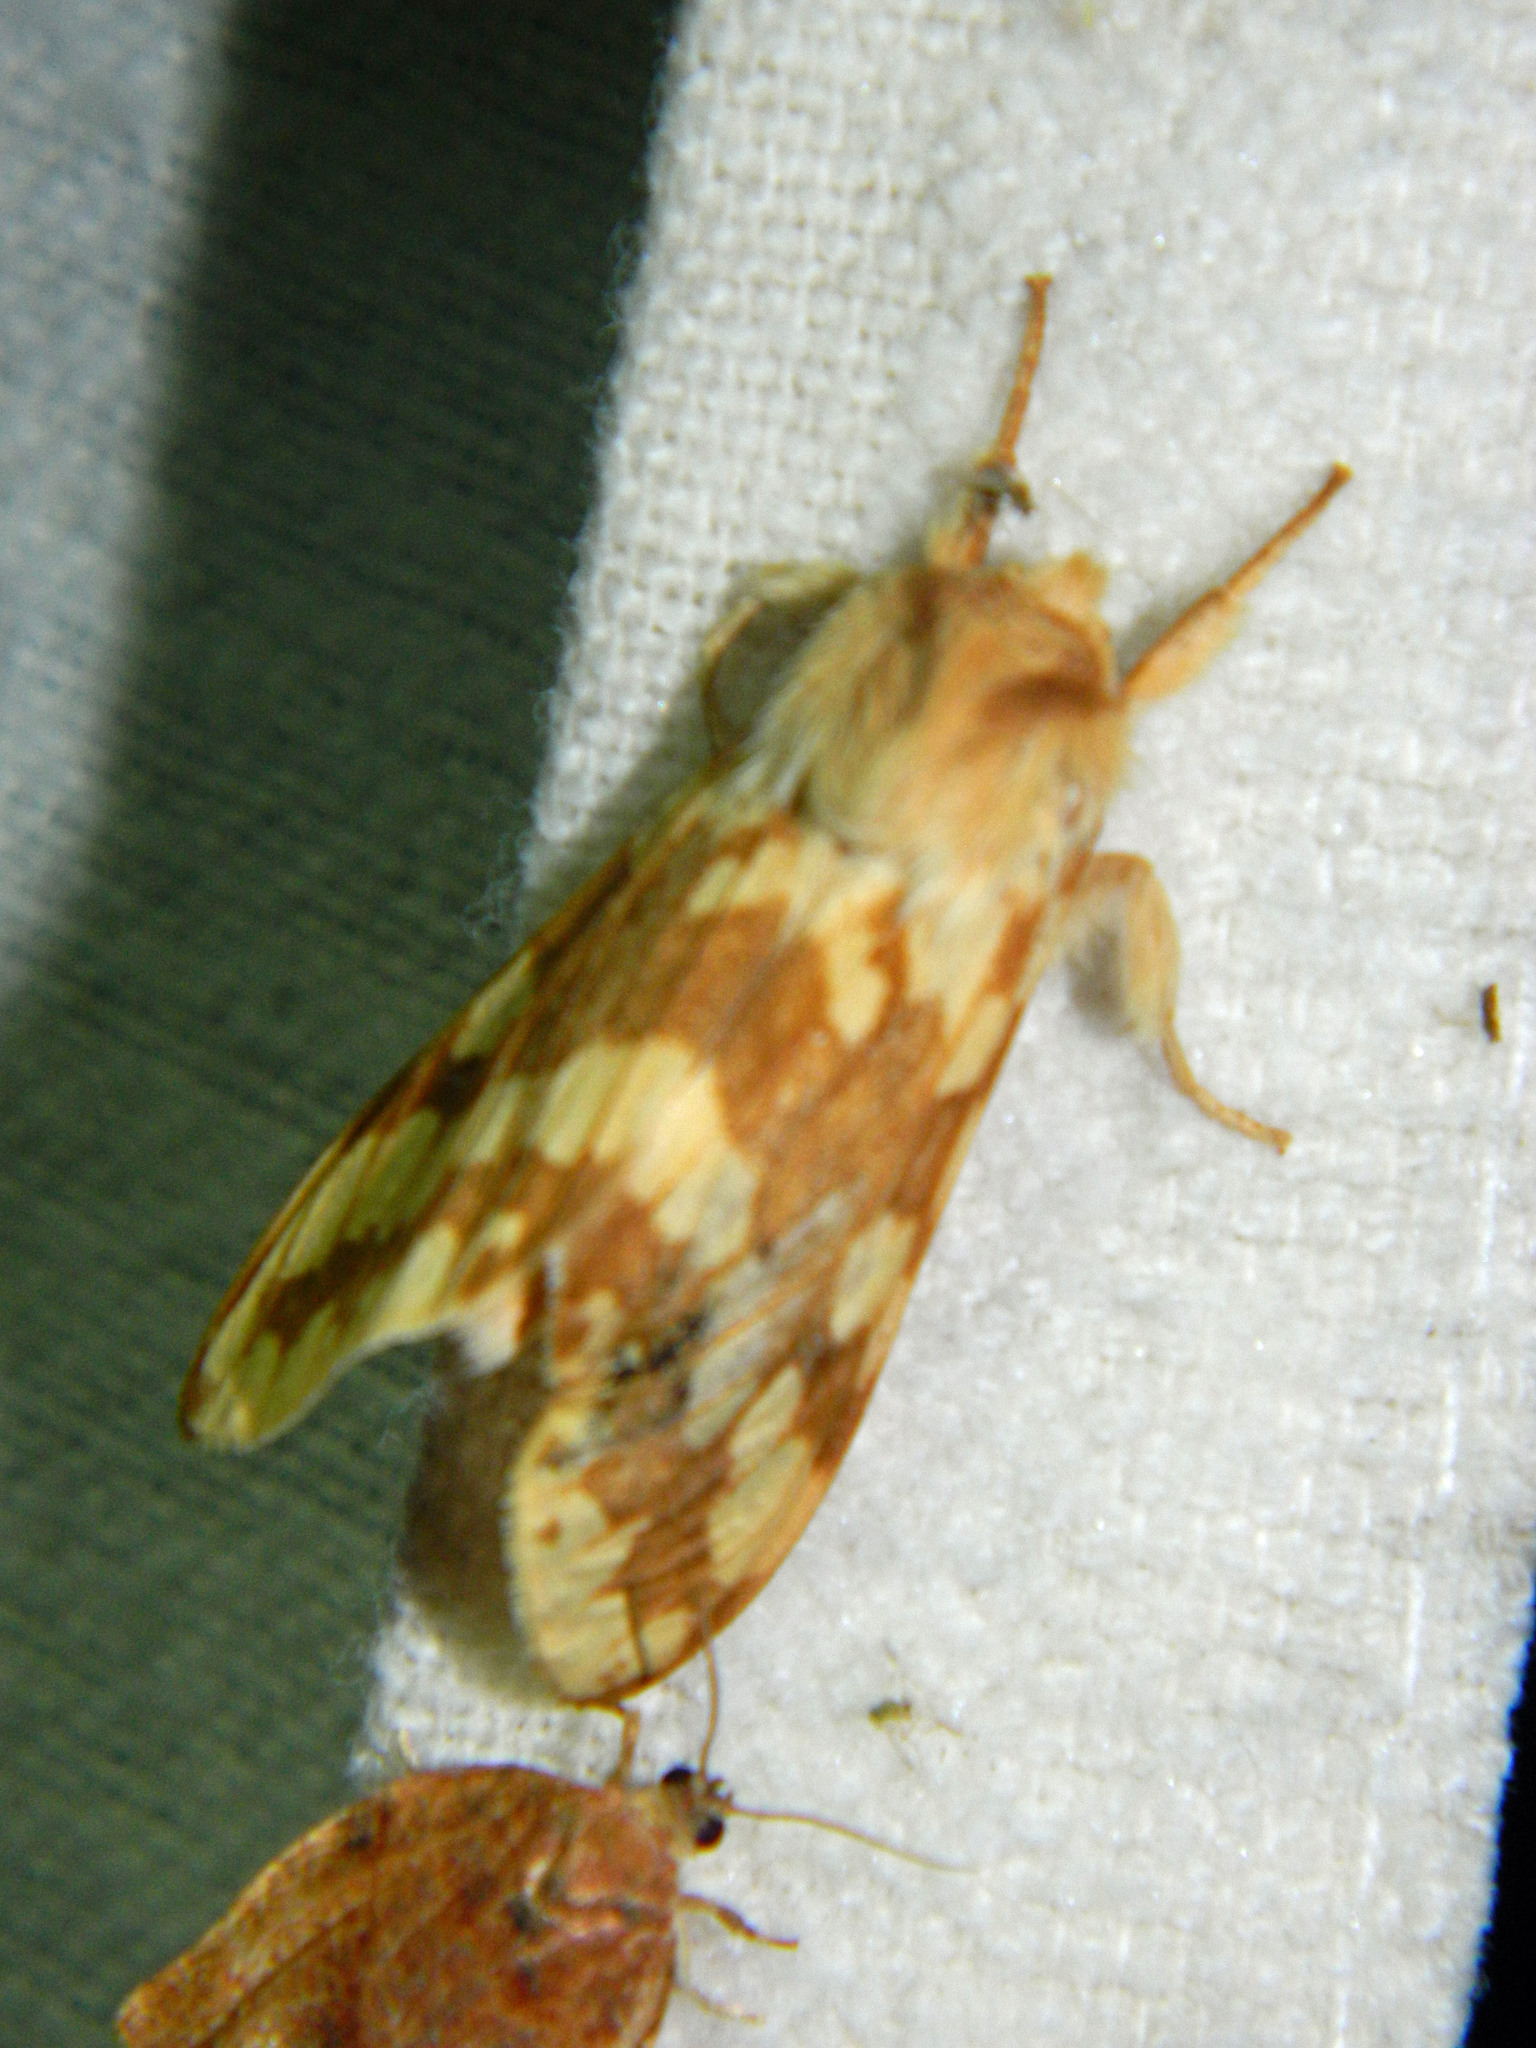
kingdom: Animalia
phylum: Arthropoda
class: Insecta
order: Lepidoptera
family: Erebidae
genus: Lophocampa
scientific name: Lophocampa maculata
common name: Spotted tussock moth
